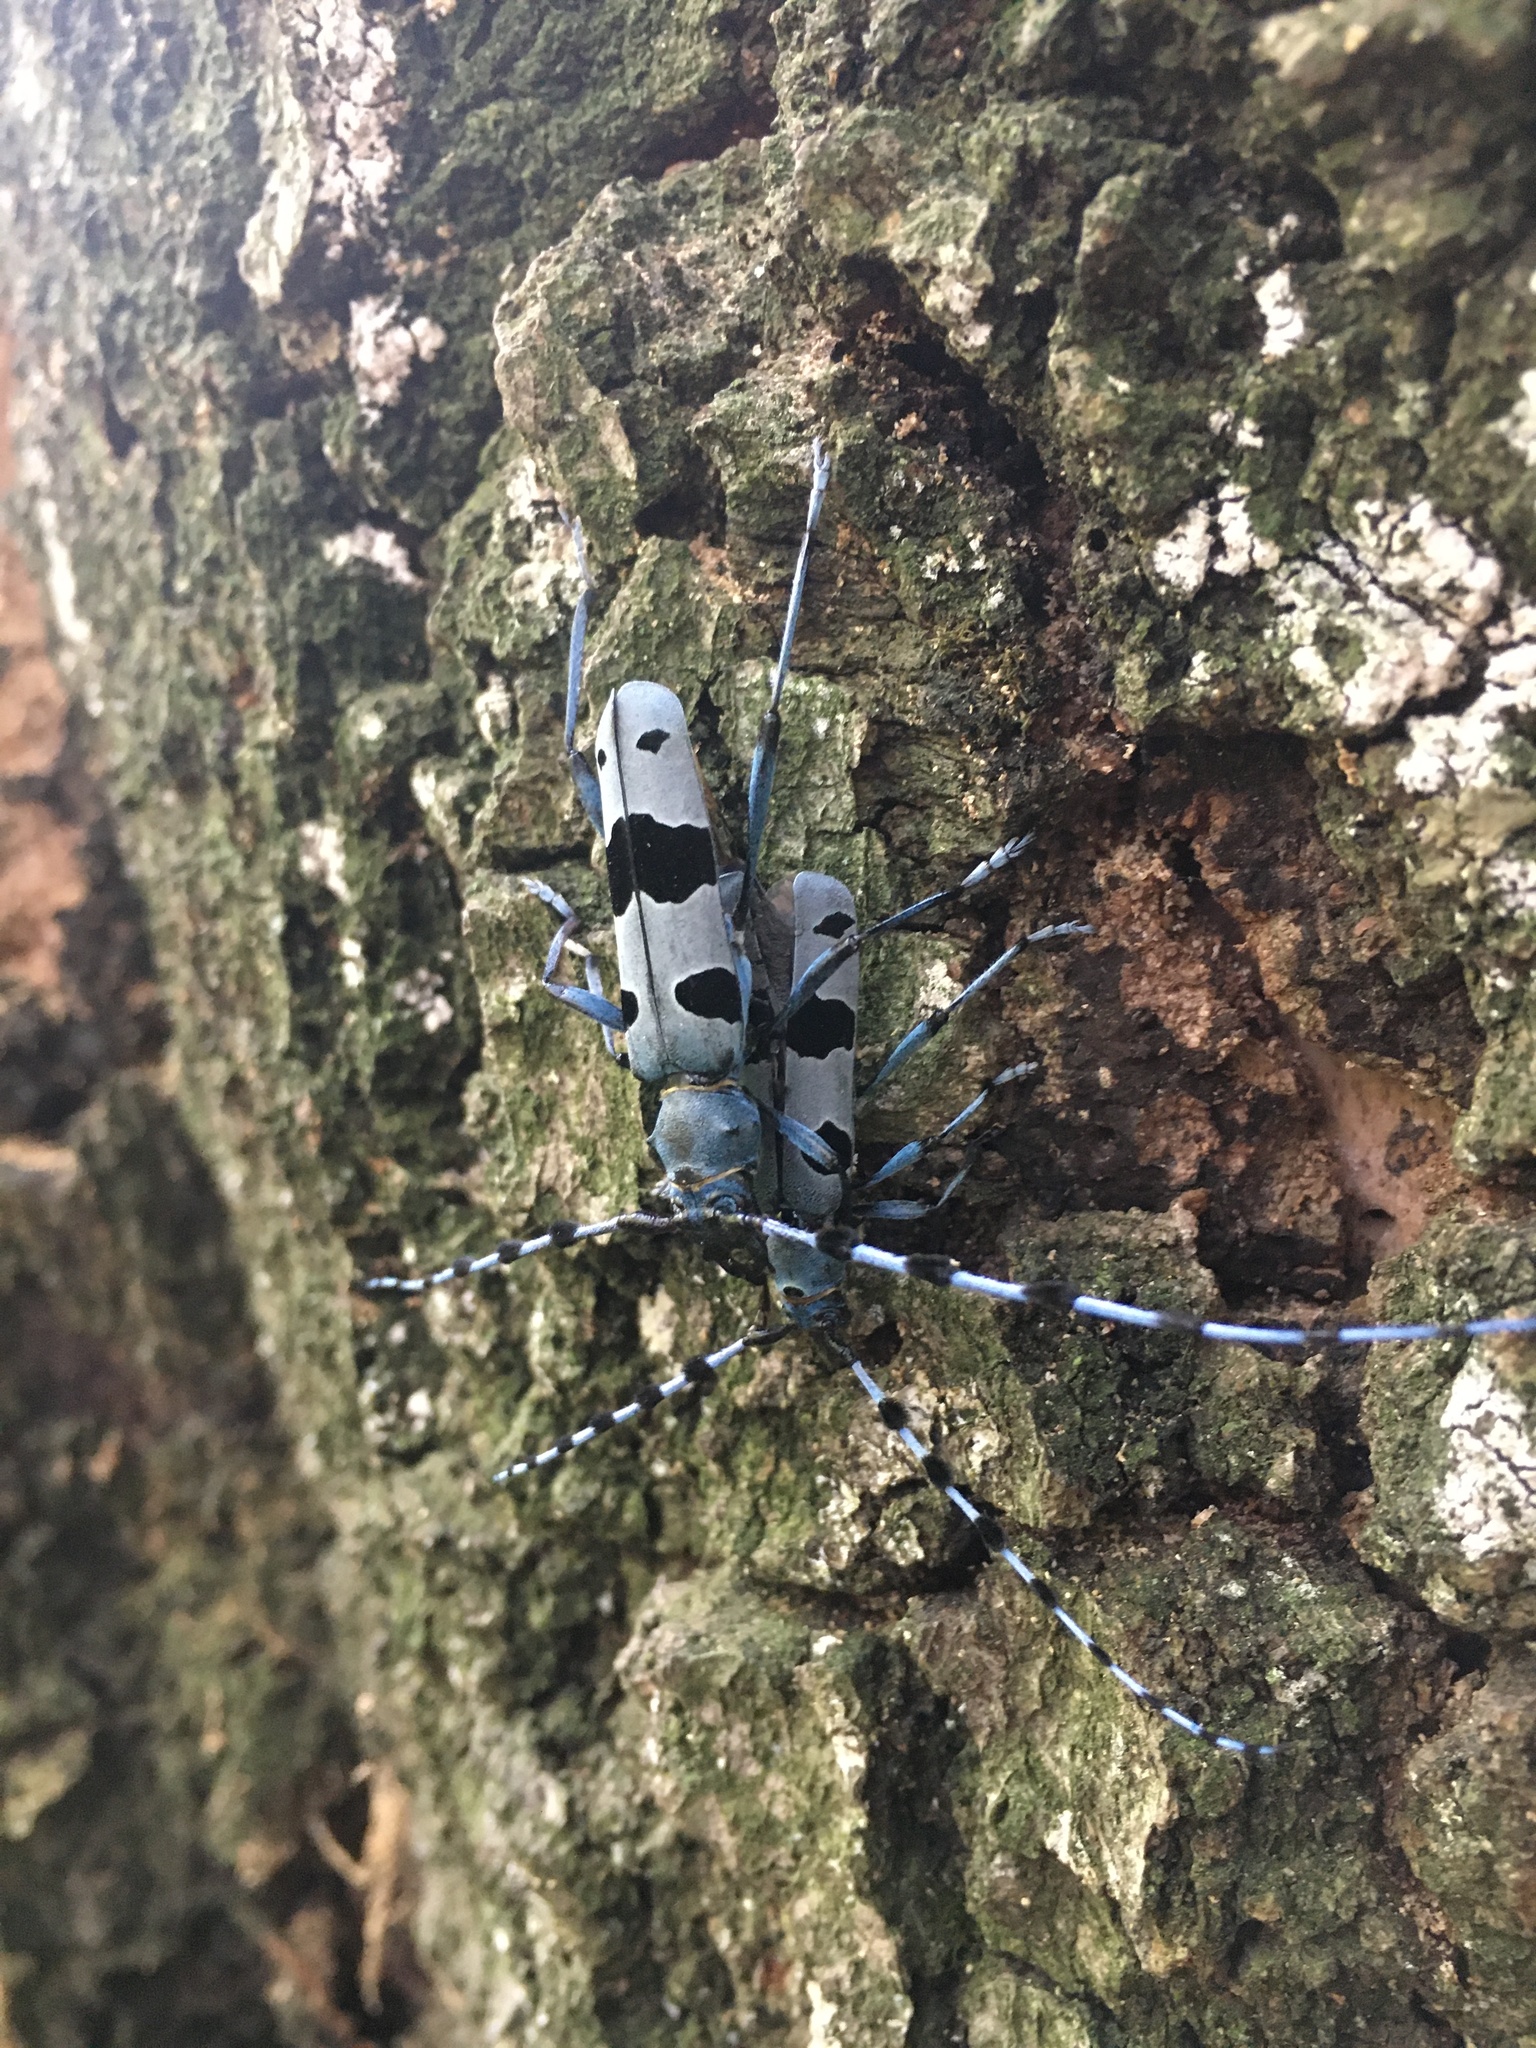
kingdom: Animalia
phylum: Arthropoda
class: Insecta
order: Coleoptera
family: Cerambycidae
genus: Rosalia
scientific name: Rosalia alpina
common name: Rosalia longicorn
